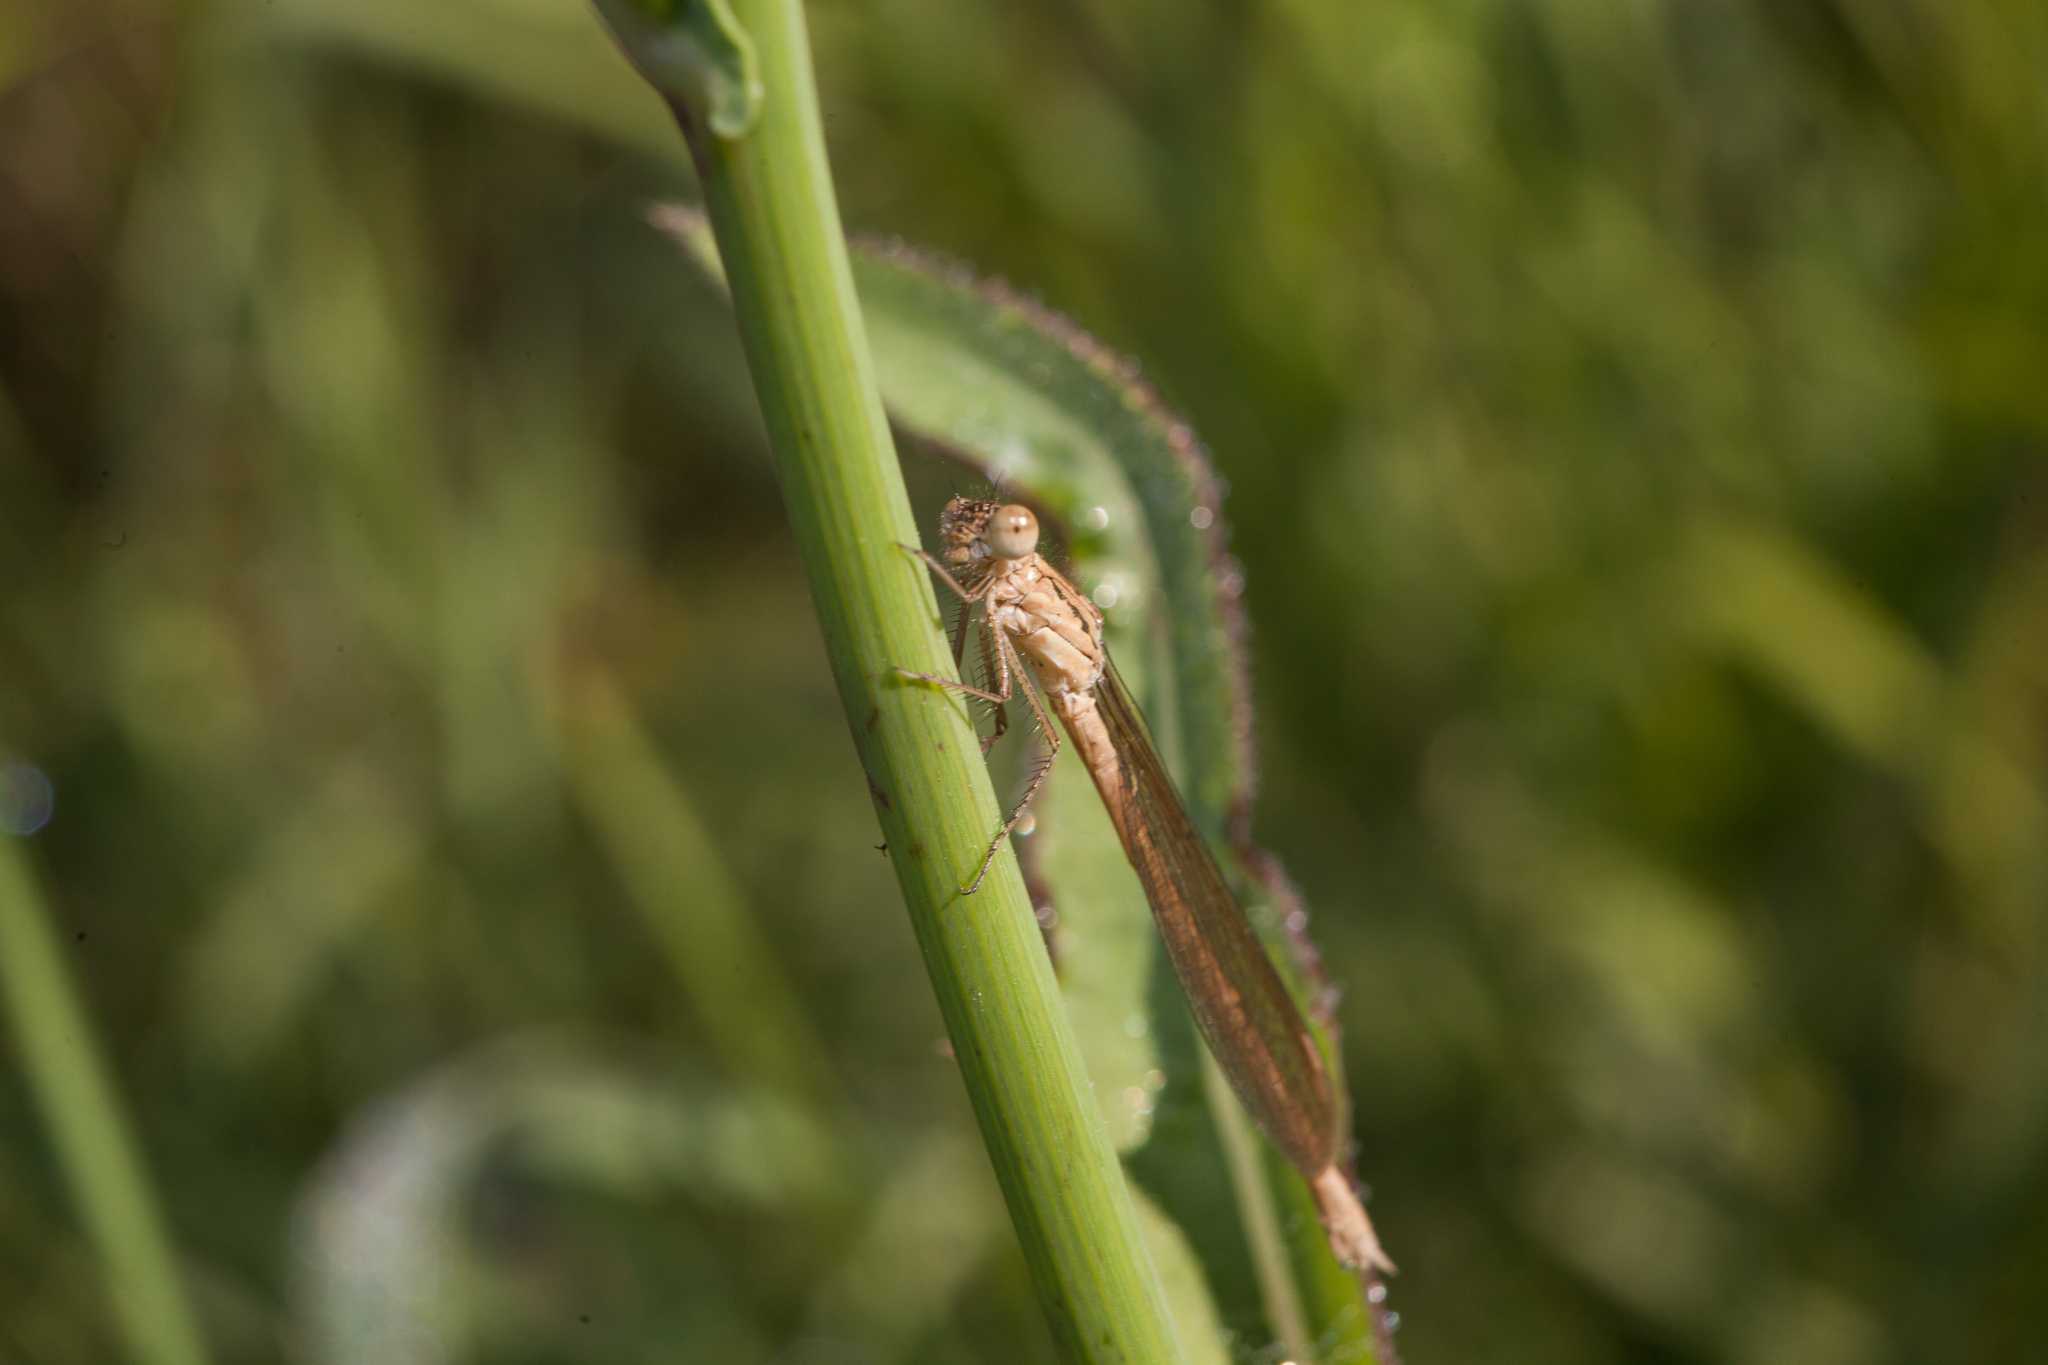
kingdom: Animalia
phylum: Arthropoda
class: Insecta
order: Odonata
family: Lestidae
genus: Sympecma
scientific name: Sympecma paedisca
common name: Siberian winter damsel
